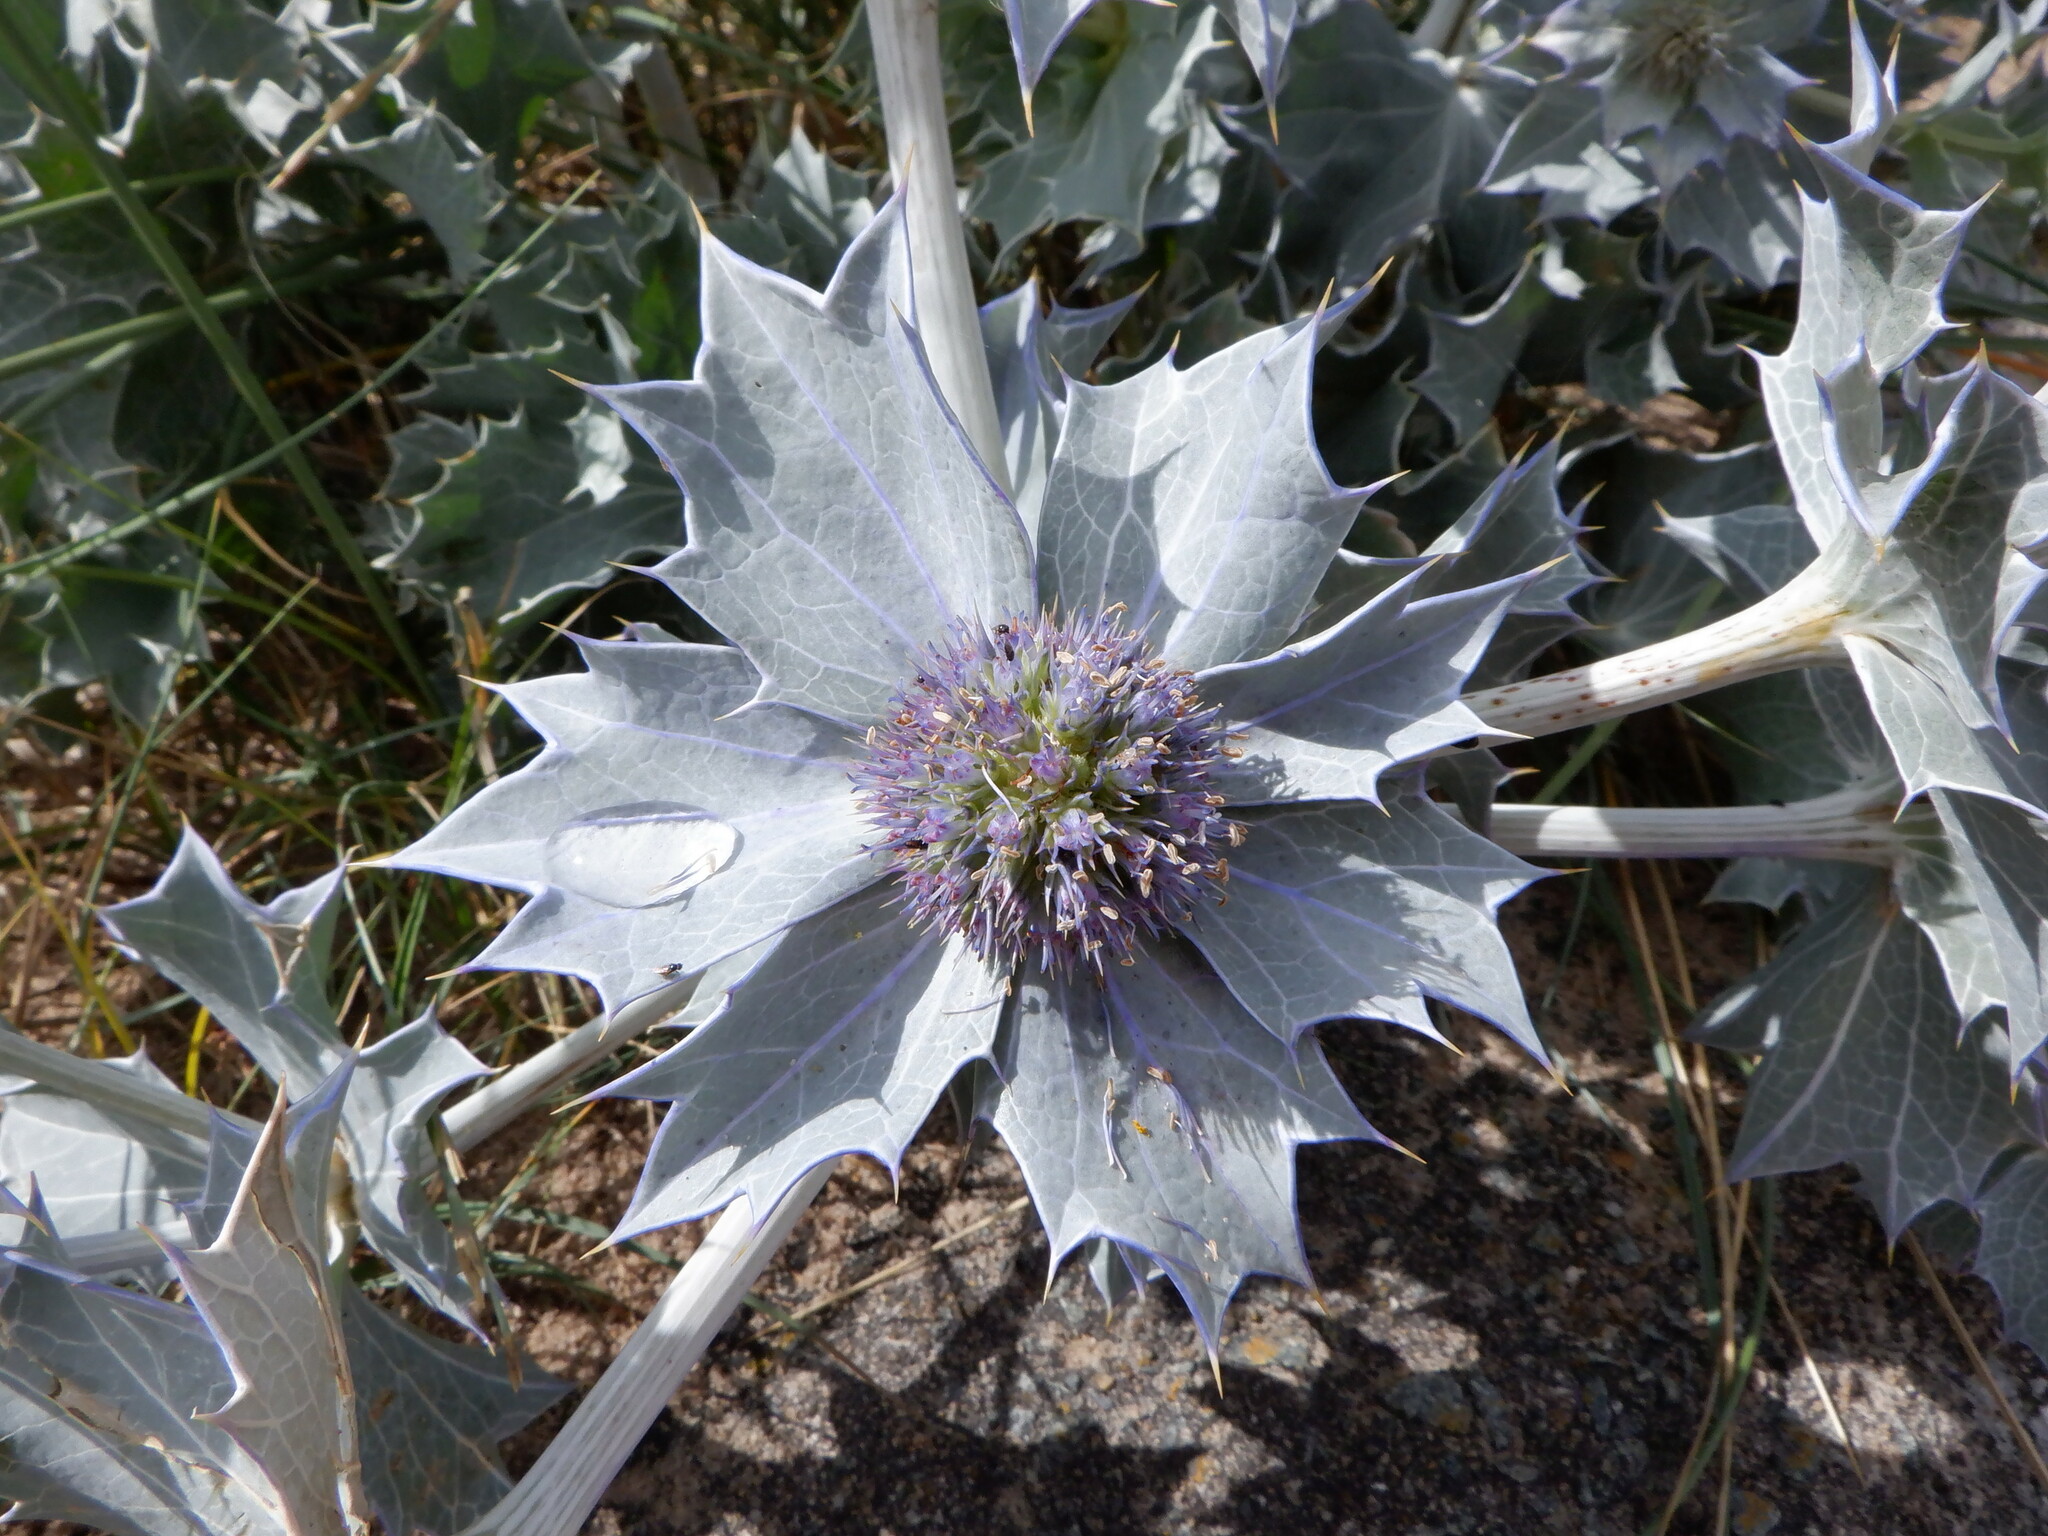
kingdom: Plantae
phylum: Tracheophyta
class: Magnoliopsida
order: Apiales
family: Apiaceae
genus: Eryngium
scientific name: Eryngium maritimum
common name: Sea-holly
